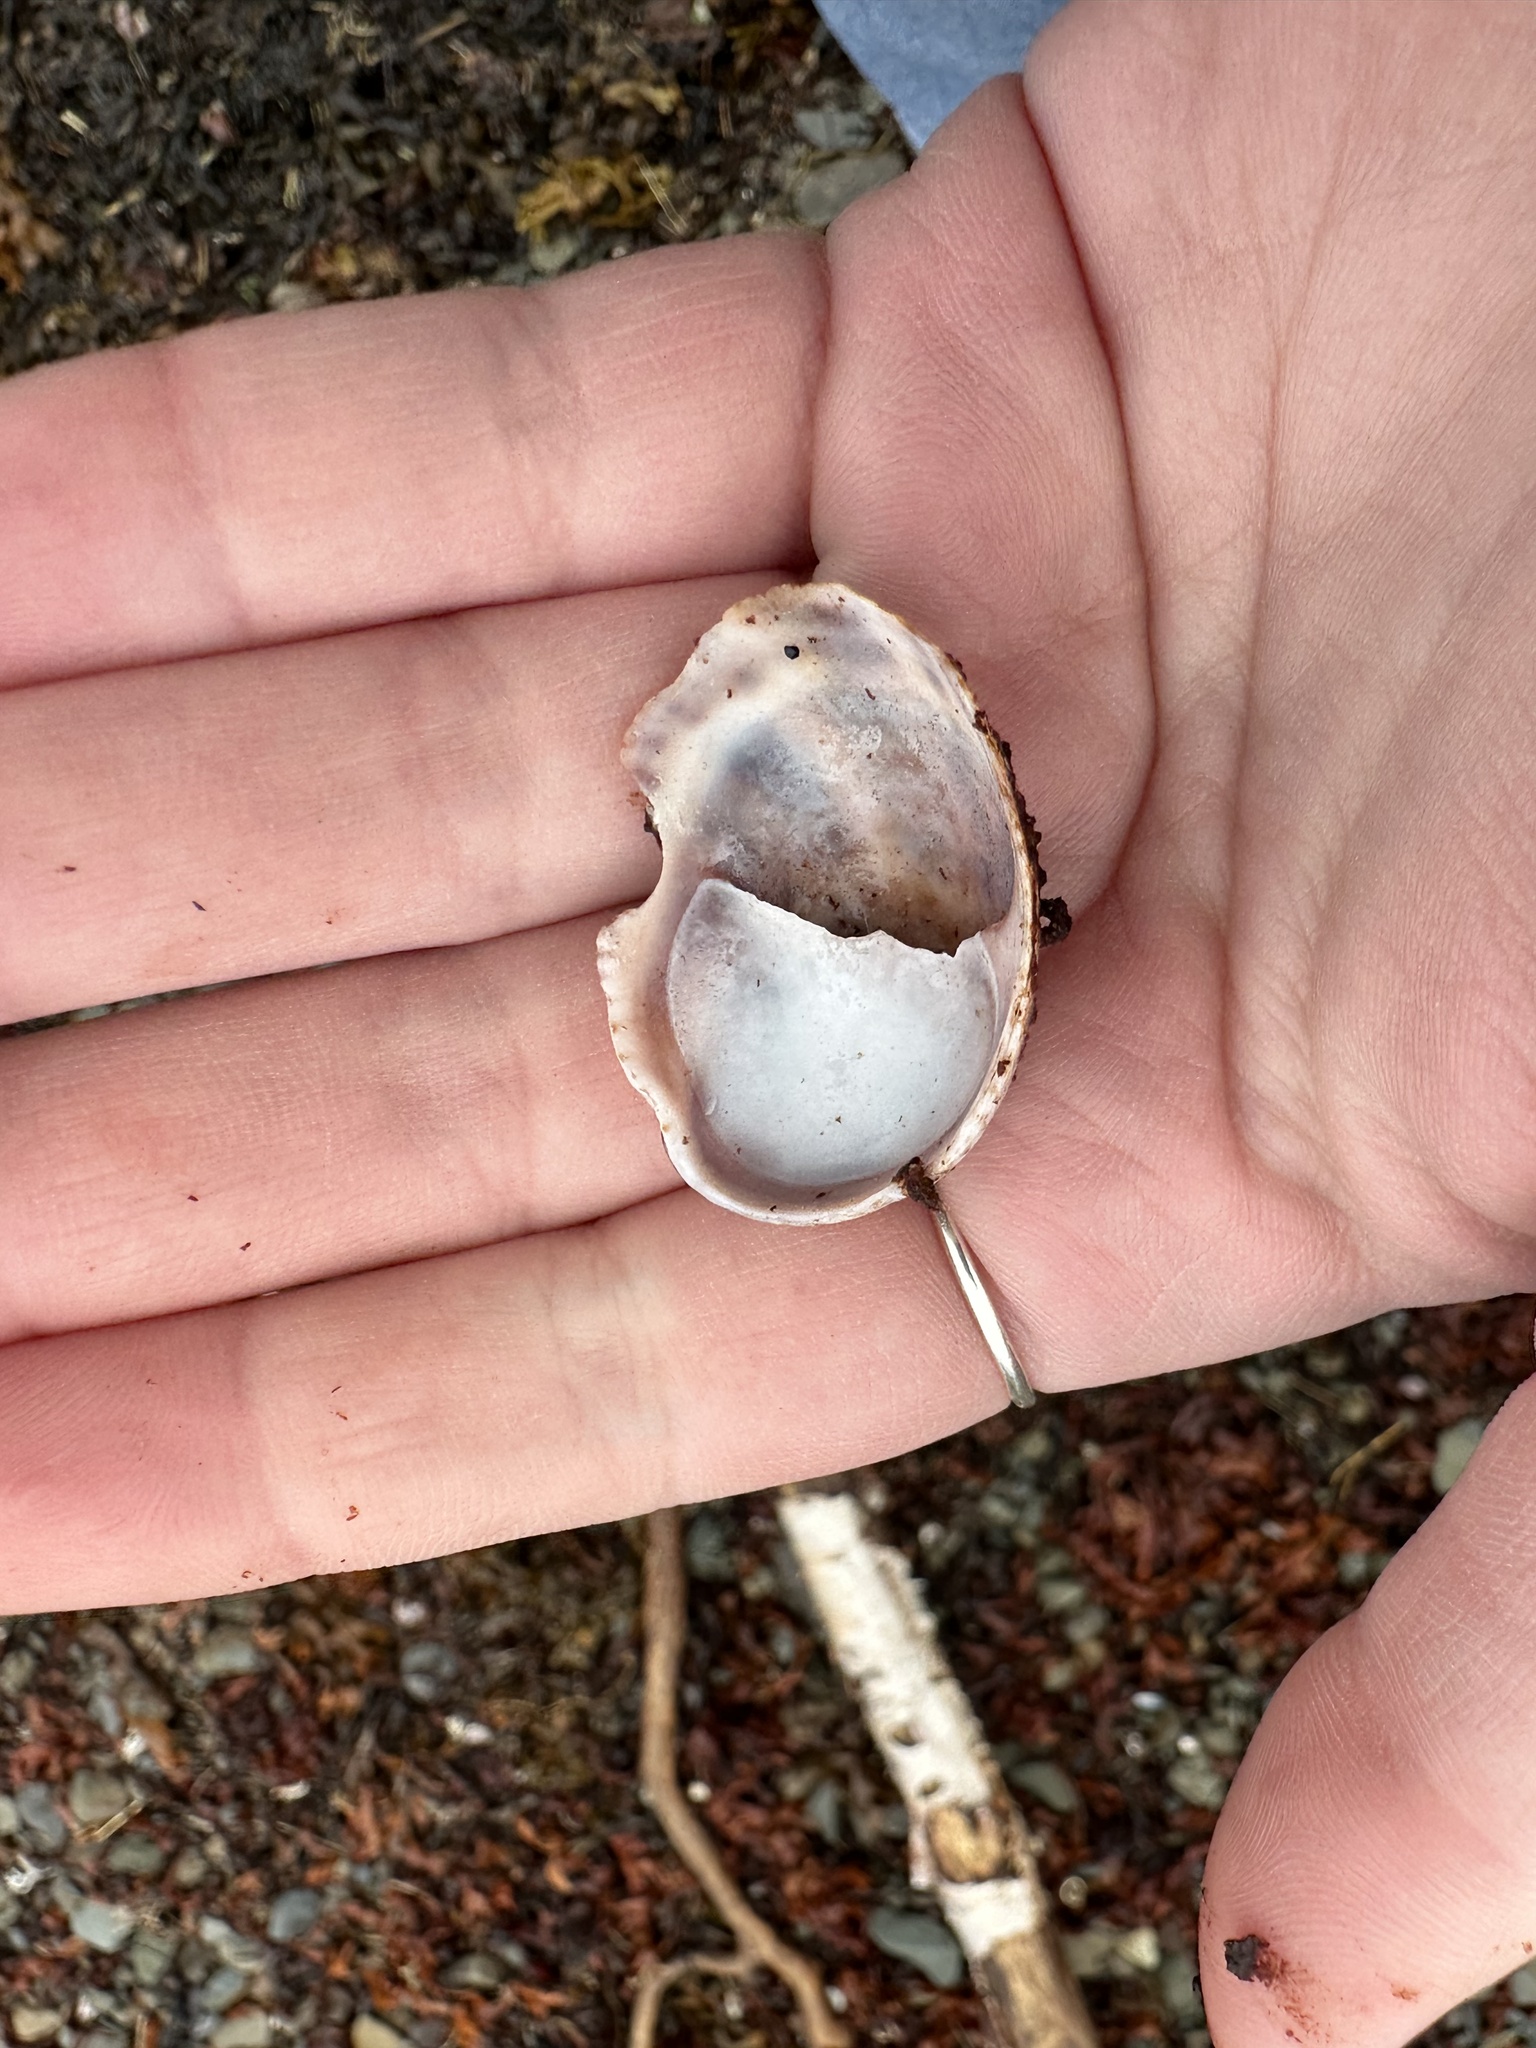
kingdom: Animalia
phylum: Mollusca
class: Gastropoda
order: Littorinimorpha
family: Calyptraeidae
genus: Crepidula
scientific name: Crepidula fornicata
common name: Slipper limpet
